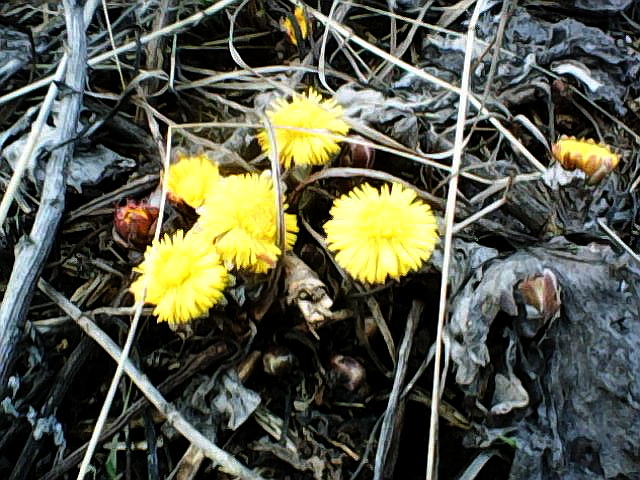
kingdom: Plantae
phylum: Tracheophyta
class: Magnoliopsida
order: Asterales
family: Asteraceae
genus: Tussilago
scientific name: Tussilago farfara
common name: Coltsfoot
